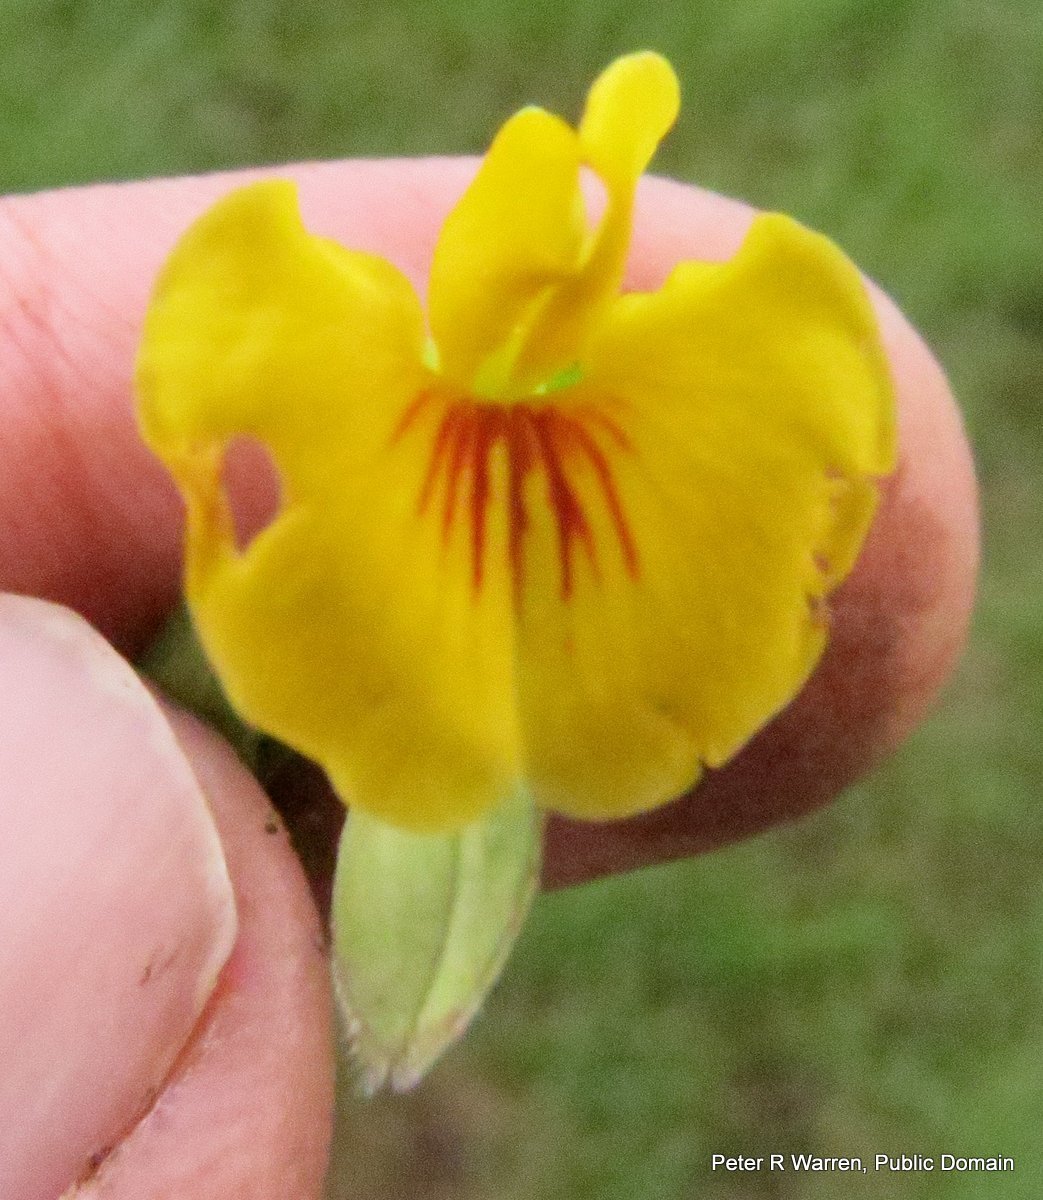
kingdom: Plantae
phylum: Tracheophyta
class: Magnoliopsida
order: Fabales
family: Fabaceae
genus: Zornia
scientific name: Zornia capensis
